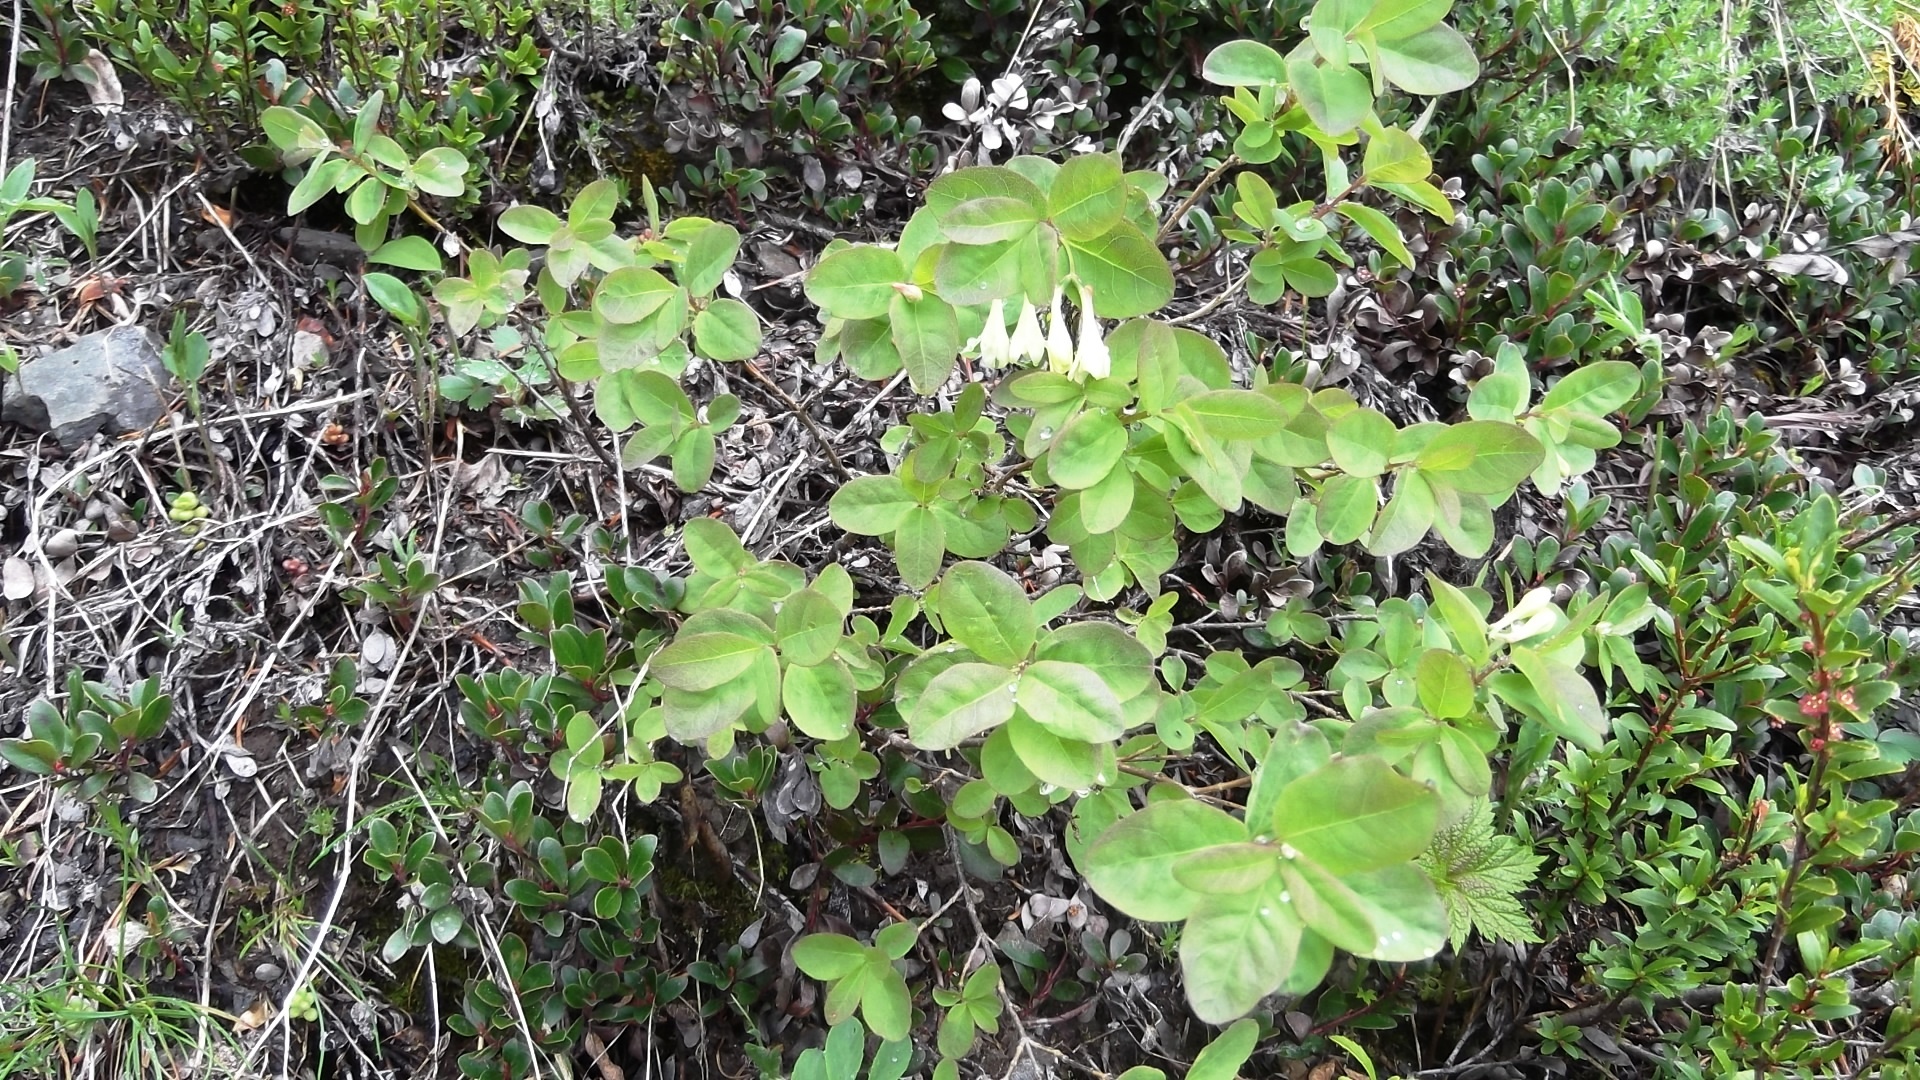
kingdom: Plantae
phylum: Tracheophyta
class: Magnoliopsida
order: Dipsacales
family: Caprifoliaceae
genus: Lonicera
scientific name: Lonicera utahensis
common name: Utah honeysuckle
